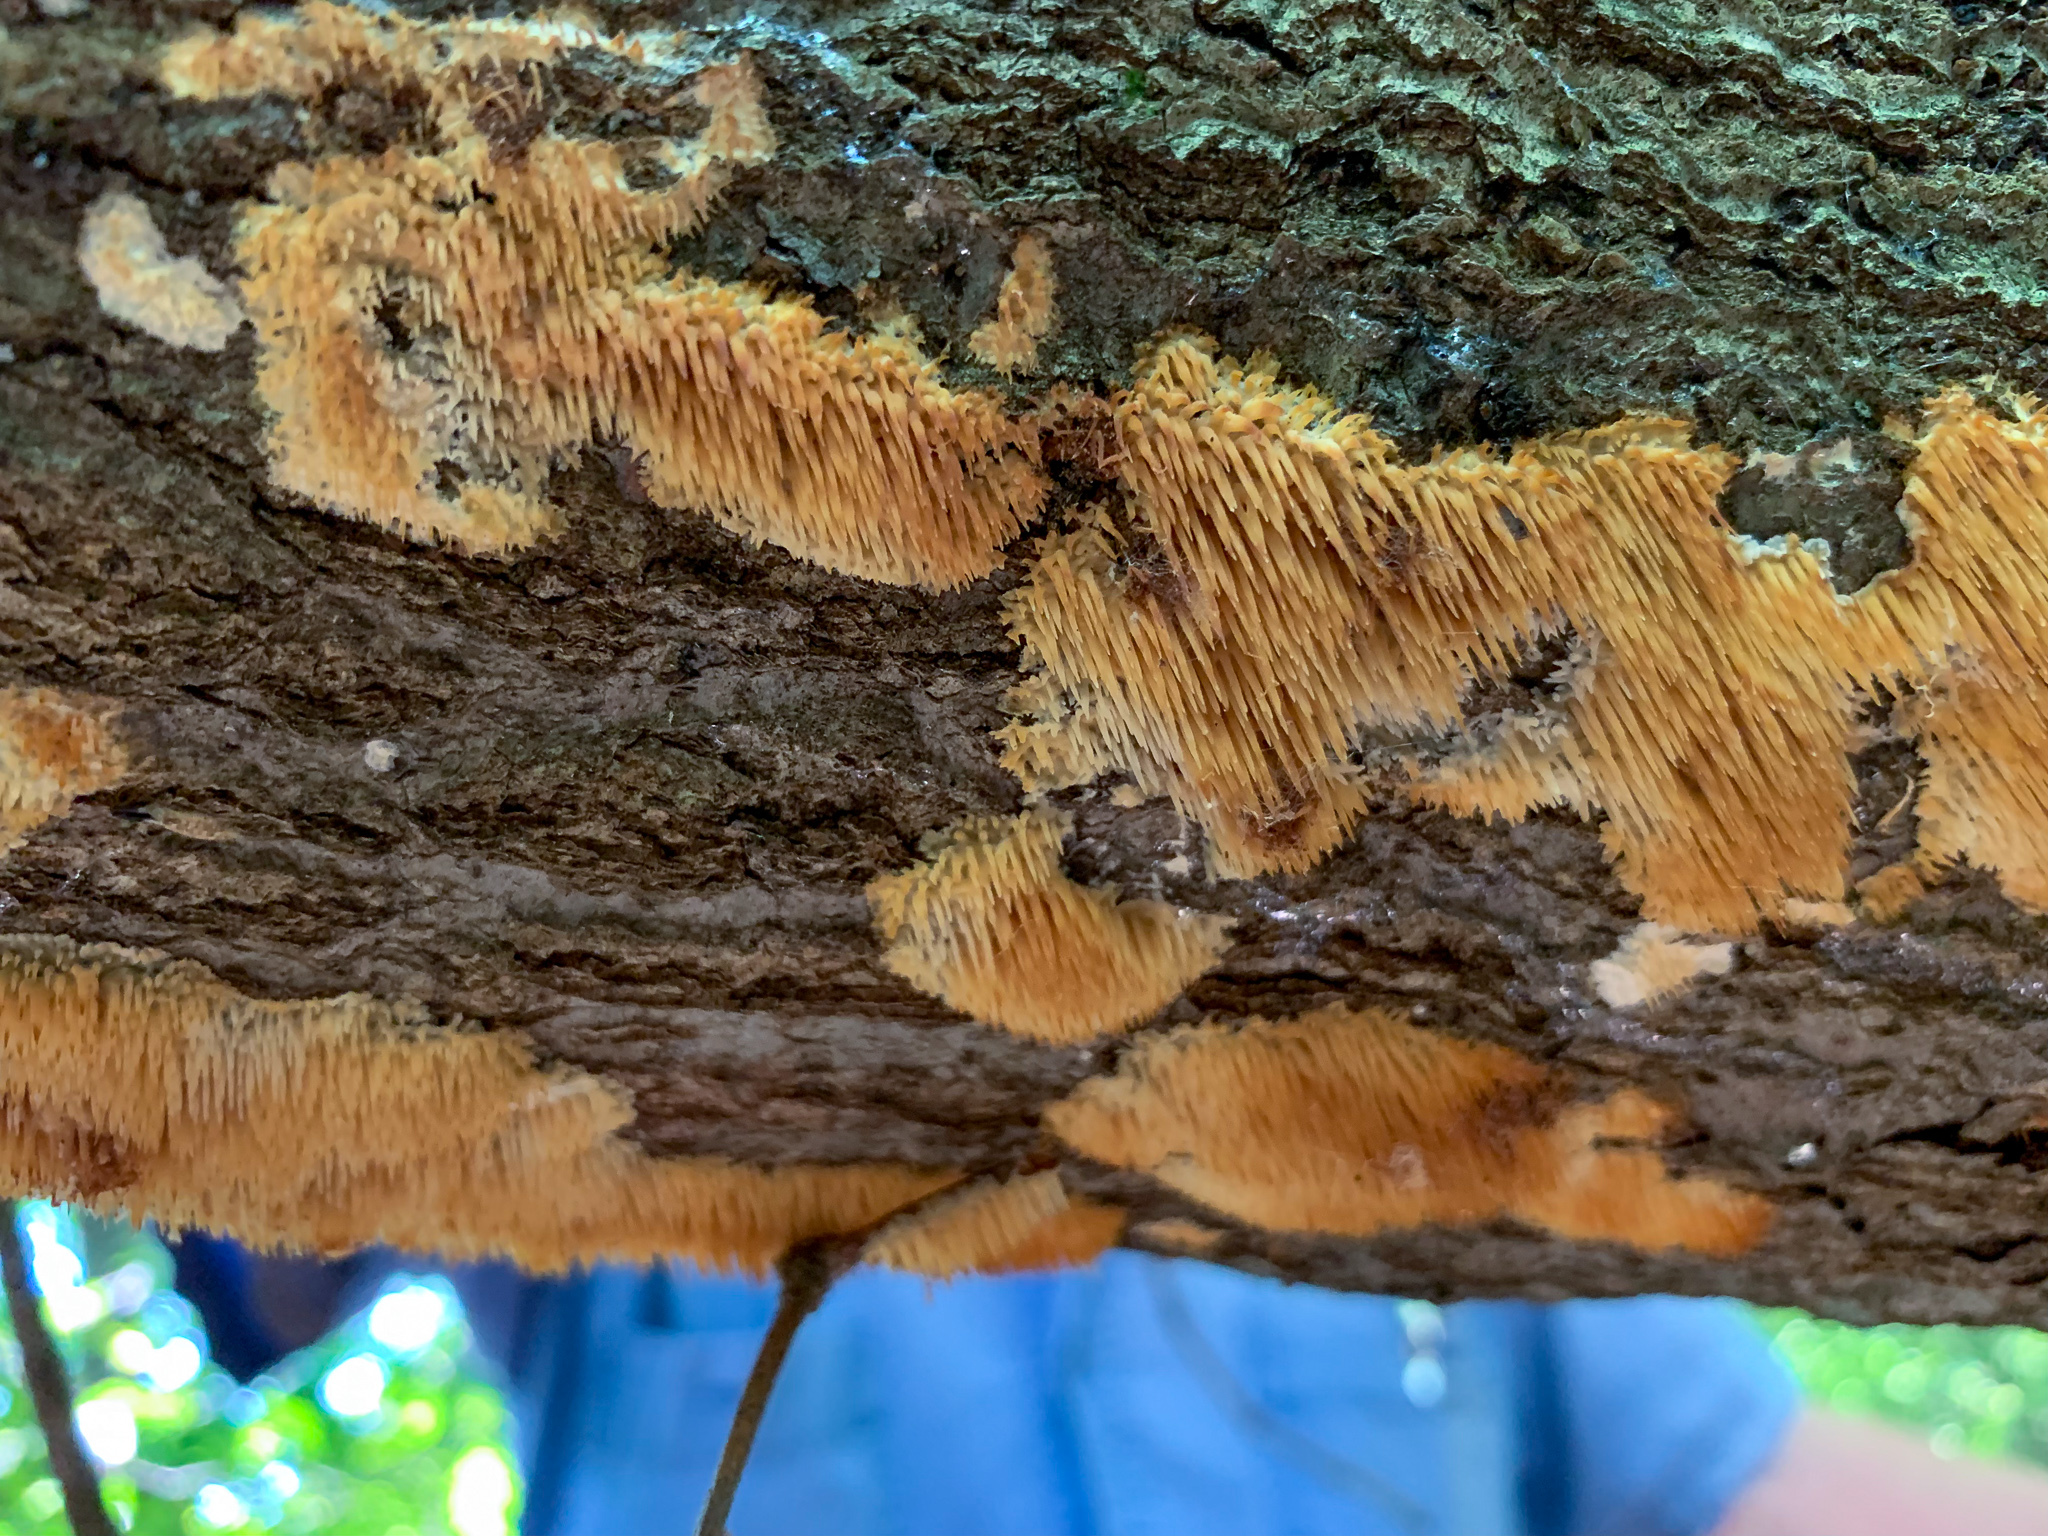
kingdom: Fungi
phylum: Basidiomycota
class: Agaricomycetes
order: Agaricales
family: Radulomycetaceae
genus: Radulomyces
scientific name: Radulomyces copelandii
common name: Asian beauty
